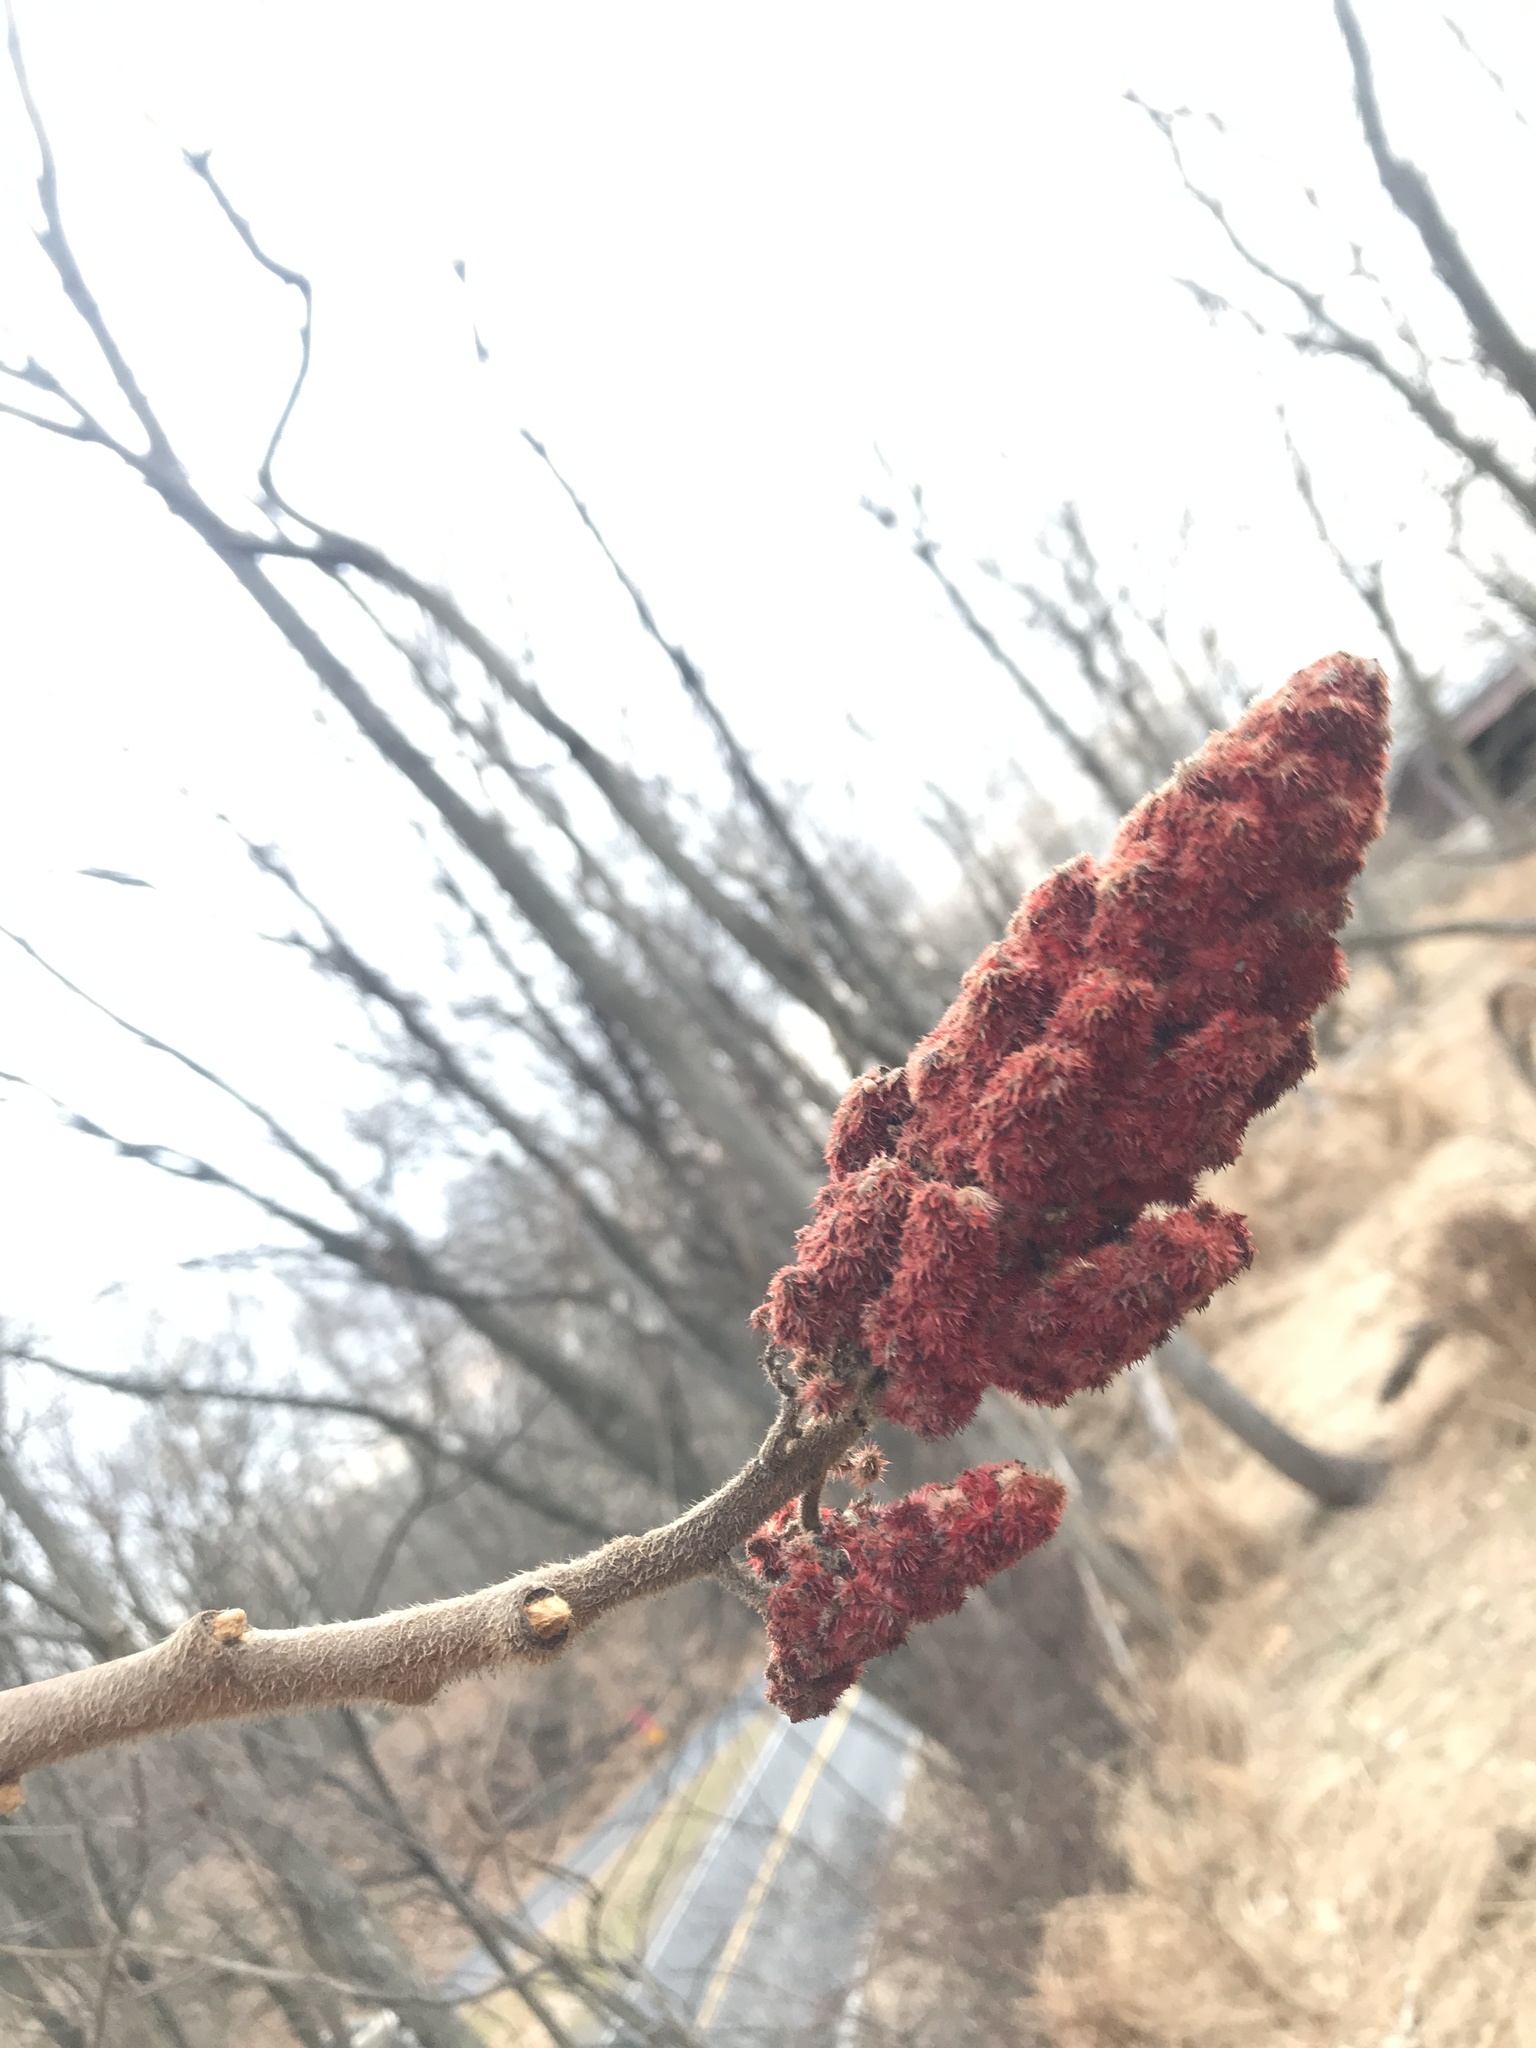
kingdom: Plantae
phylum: Tracheophyta
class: Magnoliopsida
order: Sapindales
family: Anacardiaceae
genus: Rhus
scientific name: Rhus typhina
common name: Staghorn sumac
